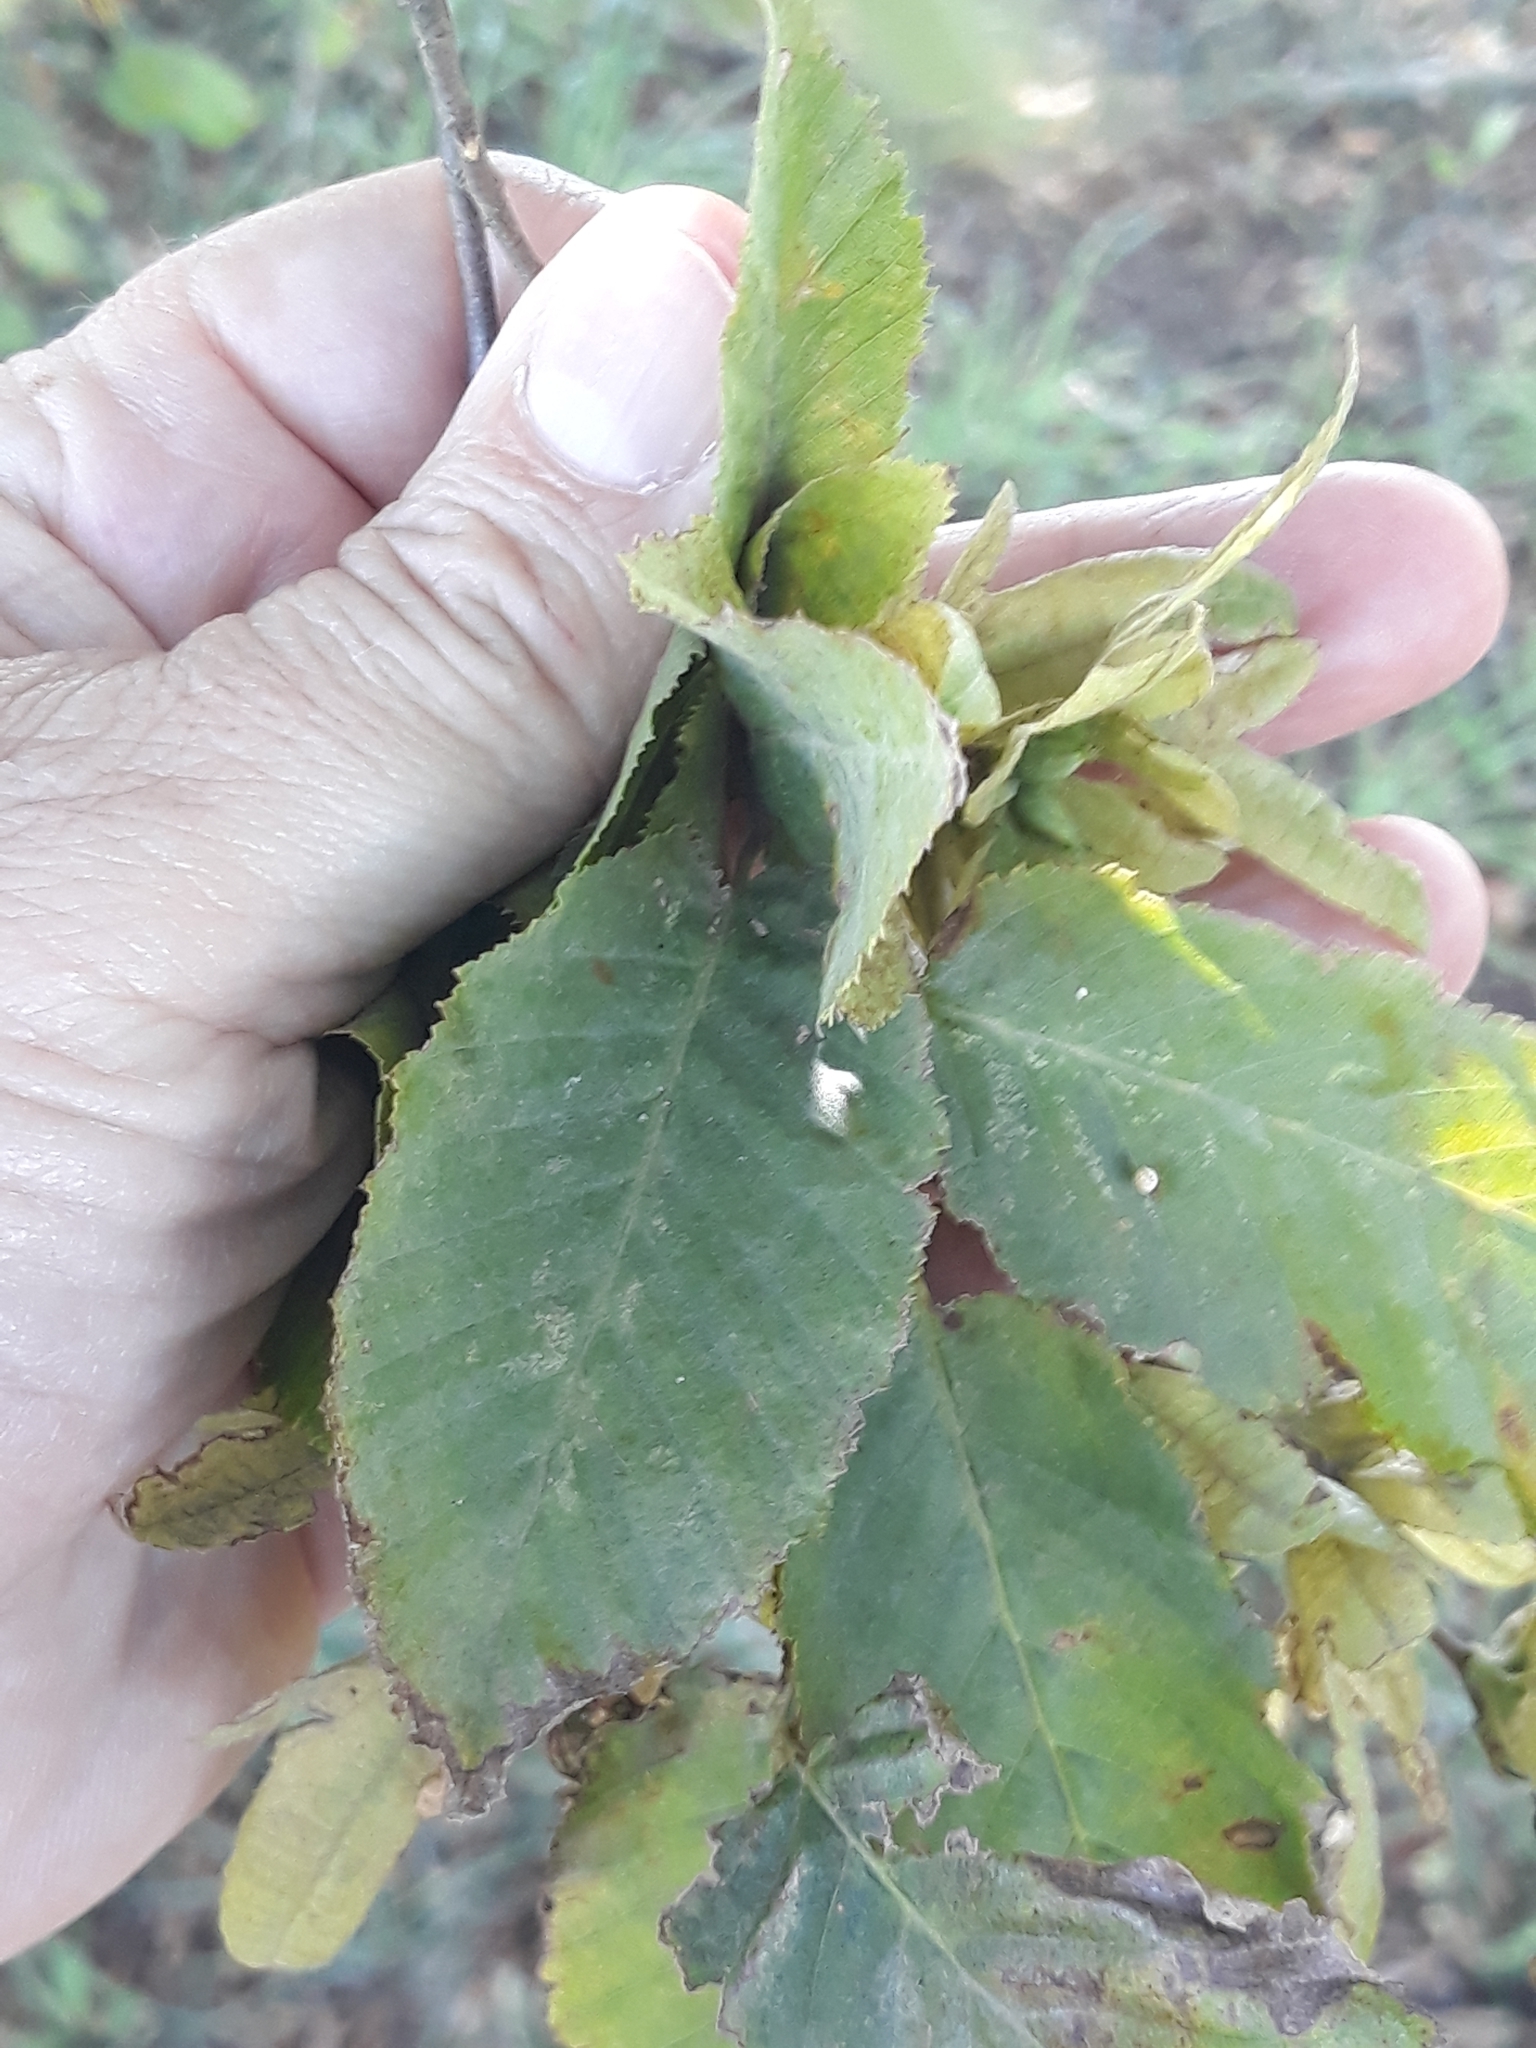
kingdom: Plantae
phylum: Tracheophyta
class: Magnoliopsida
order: Fagales
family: Betulaceae
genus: Carpinus
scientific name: Carpinus betulus
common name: Hornbeam
